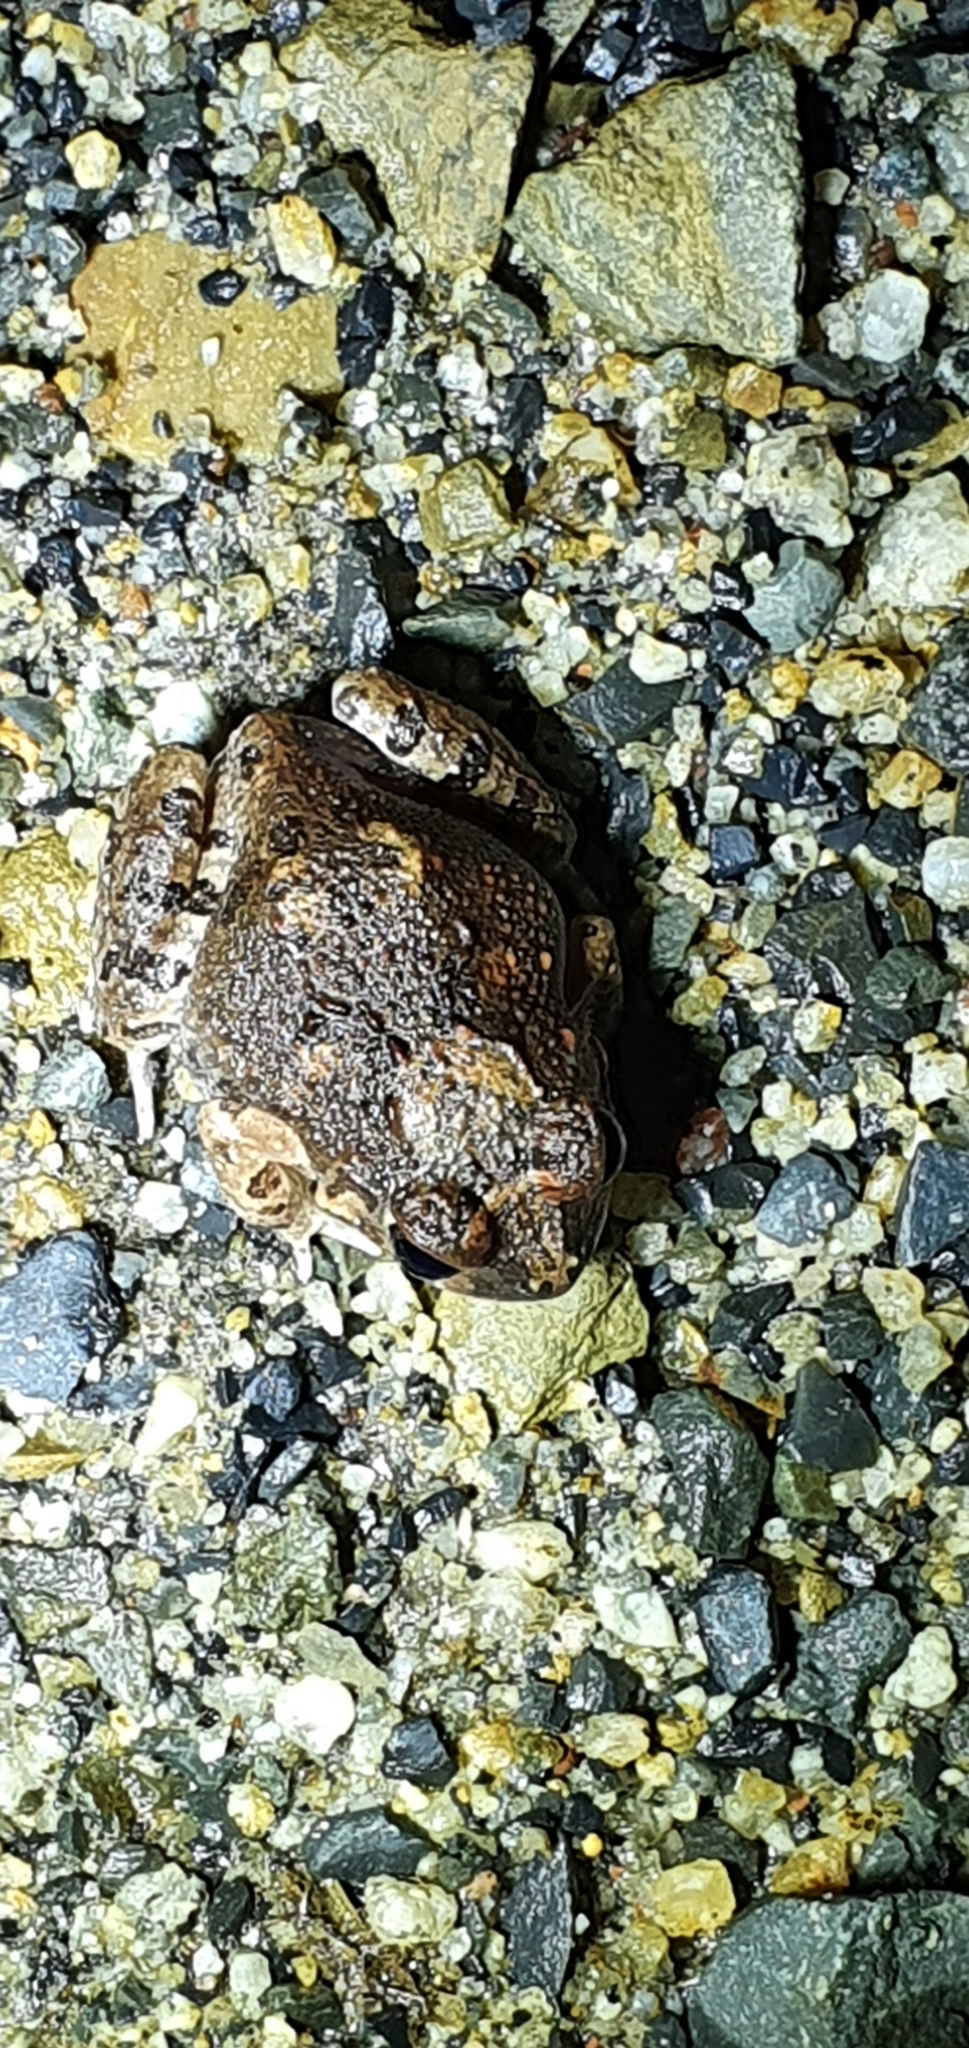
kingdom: Animalia
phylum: Chordata
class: Amphibia
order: Anura
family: Limnodynastidae
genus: Platyplectrum
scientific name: Platyplectrum ornatum
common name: Ornate burrowing frog
